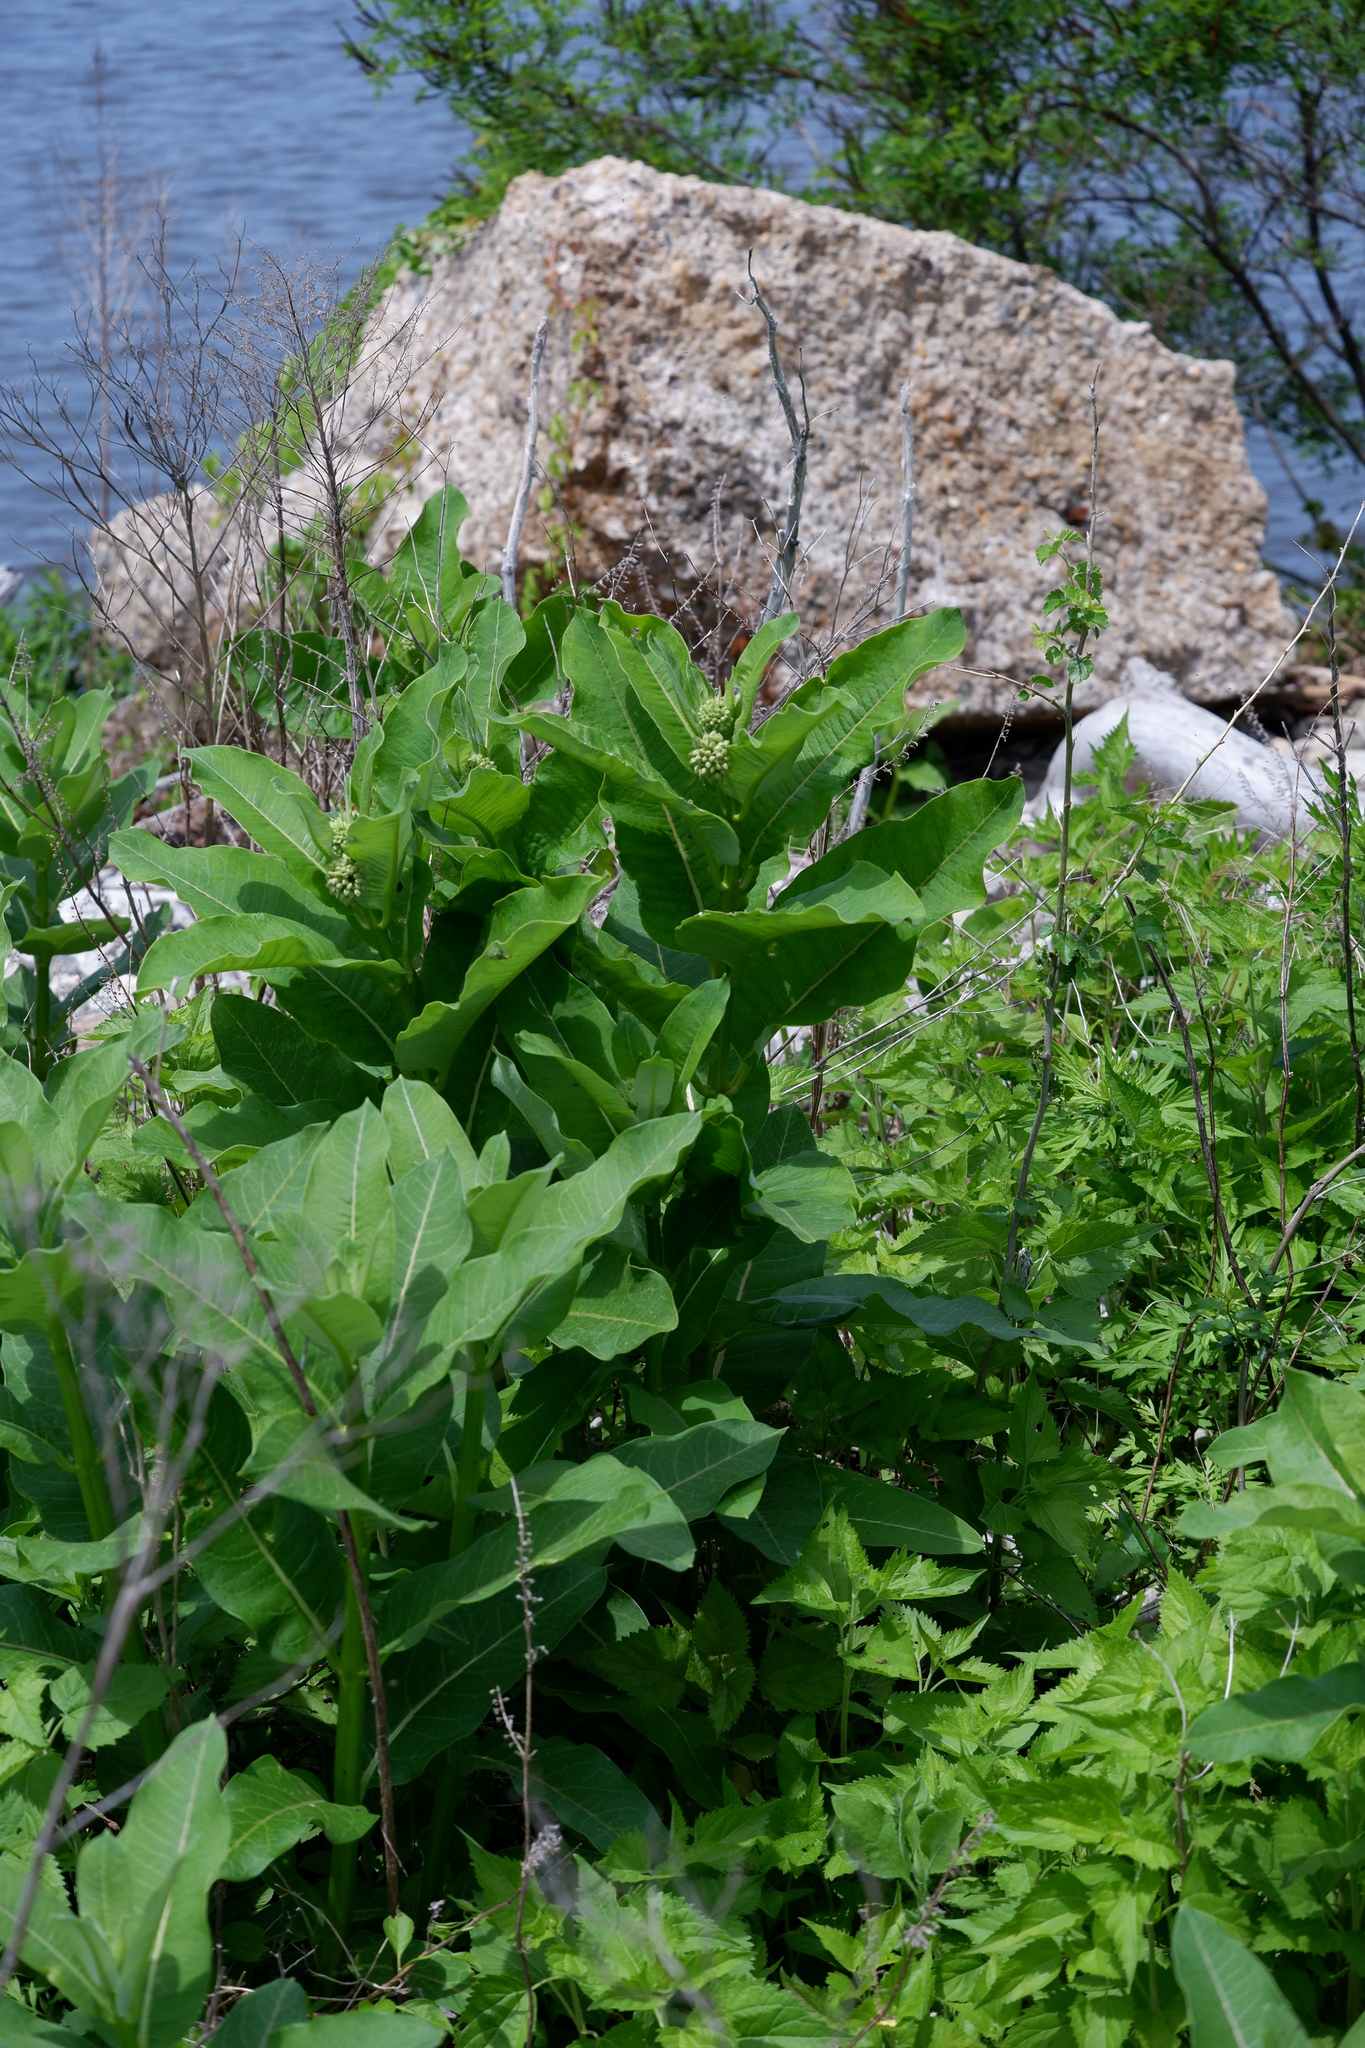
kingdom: Plantae
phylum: Tracheophyta
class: Magnoliopsida
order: Gentianales
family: Apocynaceae
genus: Asclepias
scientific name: Asclepias syriaca
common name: Common milkweed
